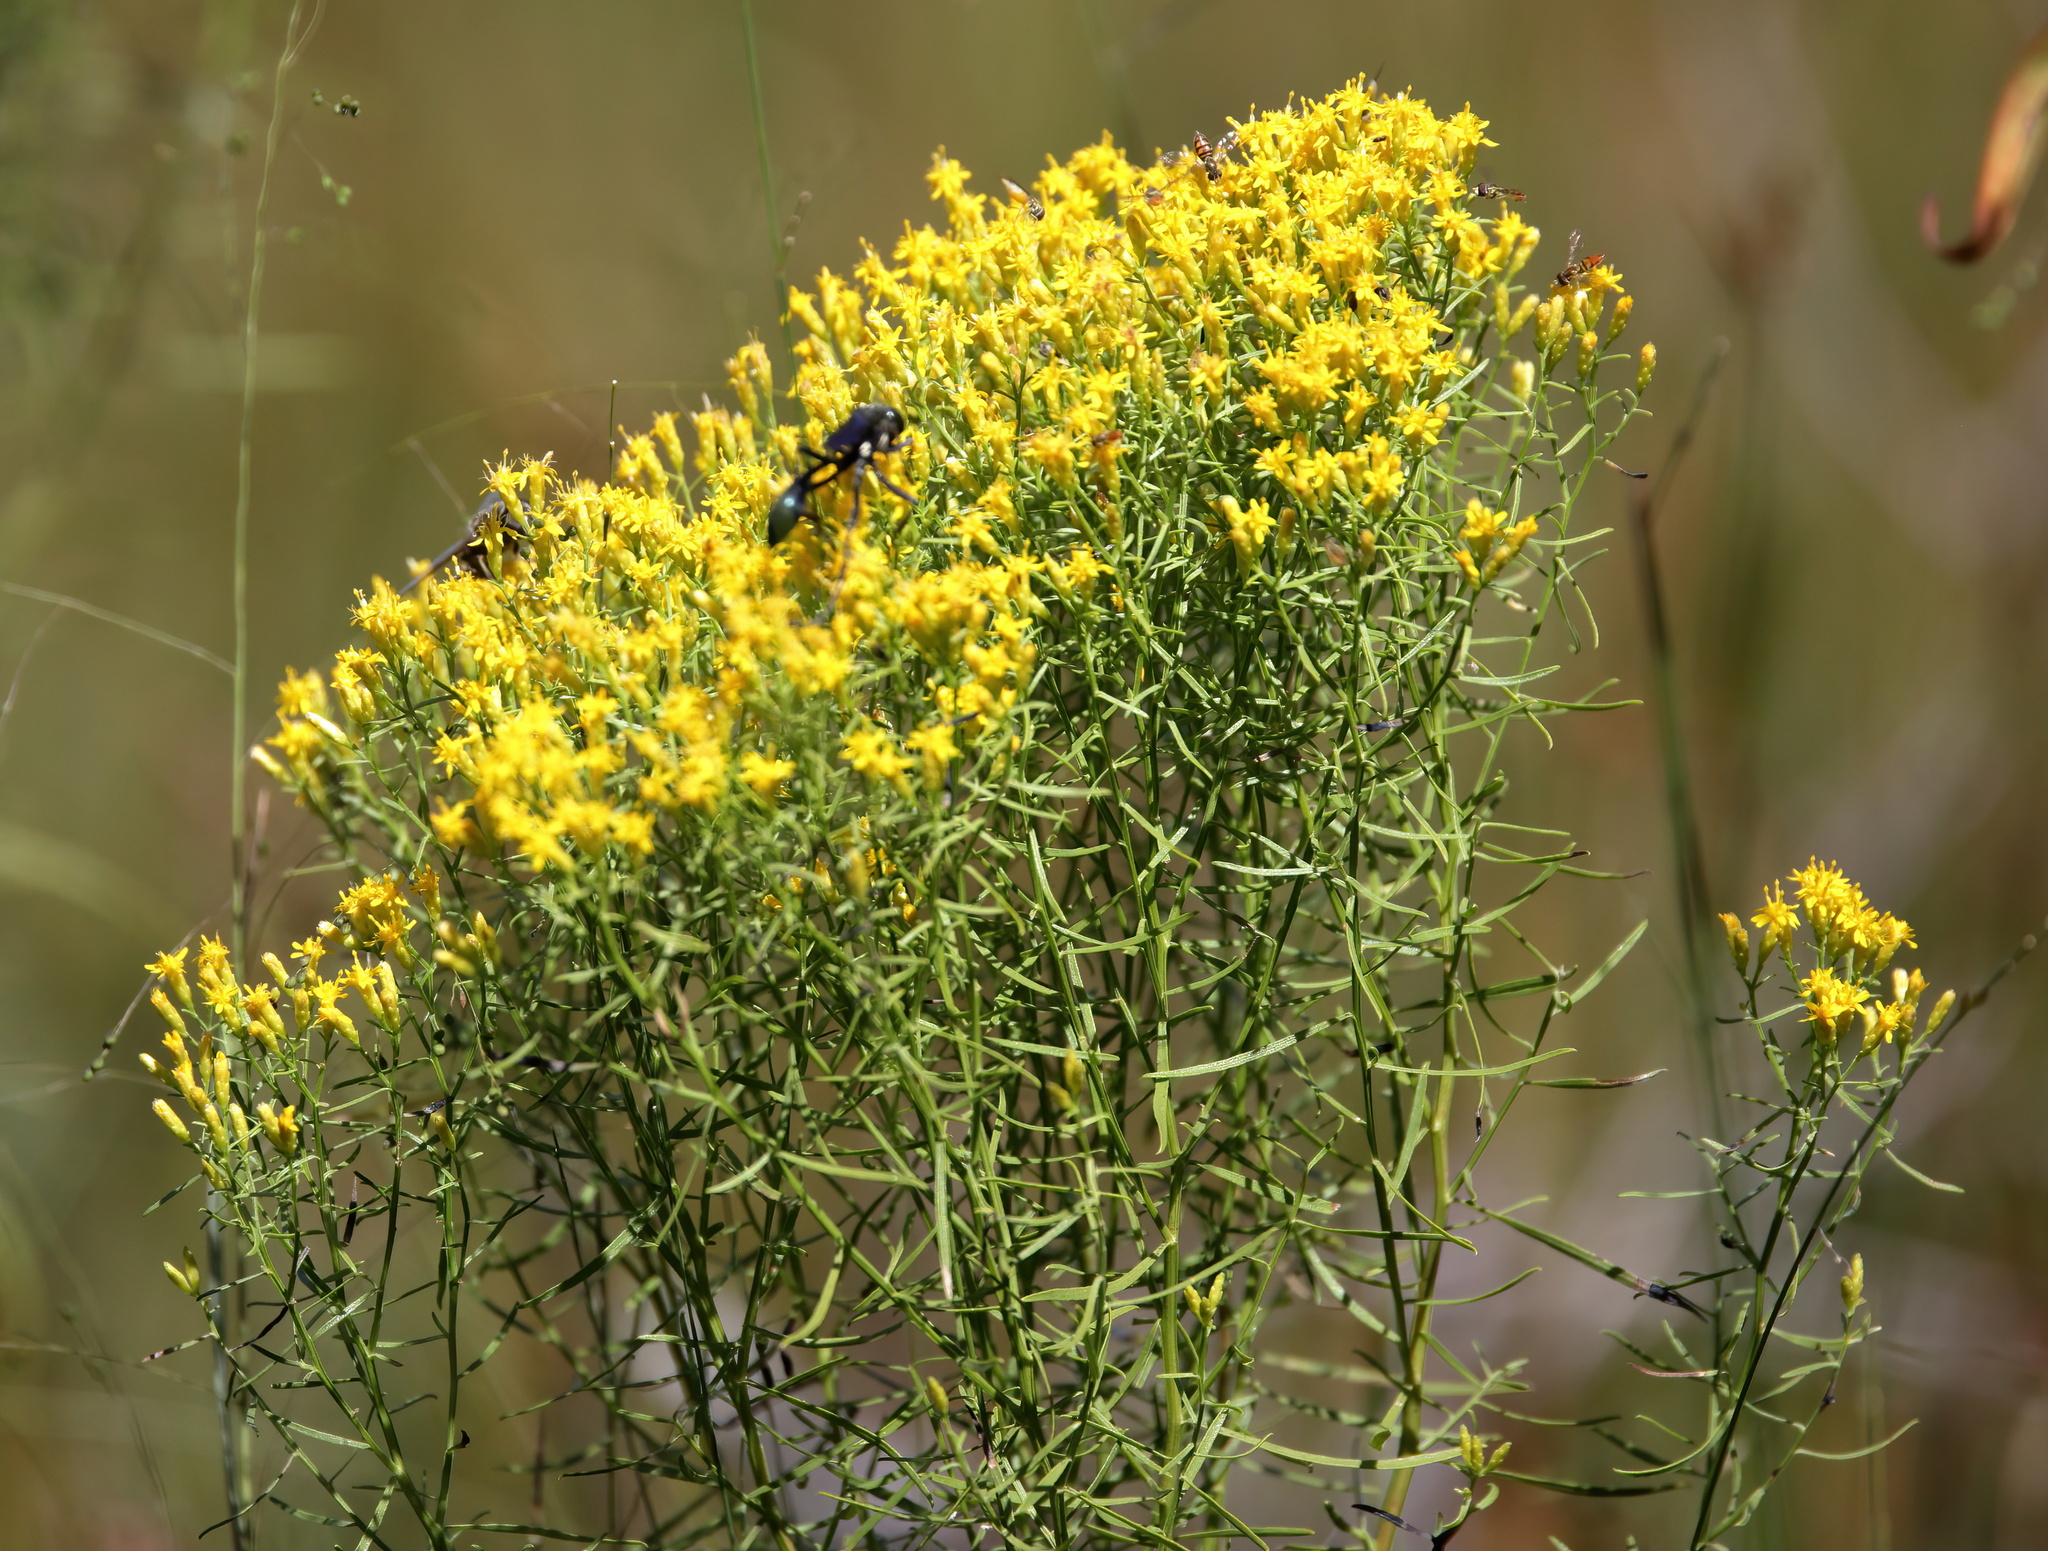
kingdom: Plantae
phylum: Tracheophyta
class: Magnoliopsida
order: Asterales
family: Asteraceae
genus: Euthamia
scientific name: Euthamia caroliniana
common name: Coastal plain goldentop
